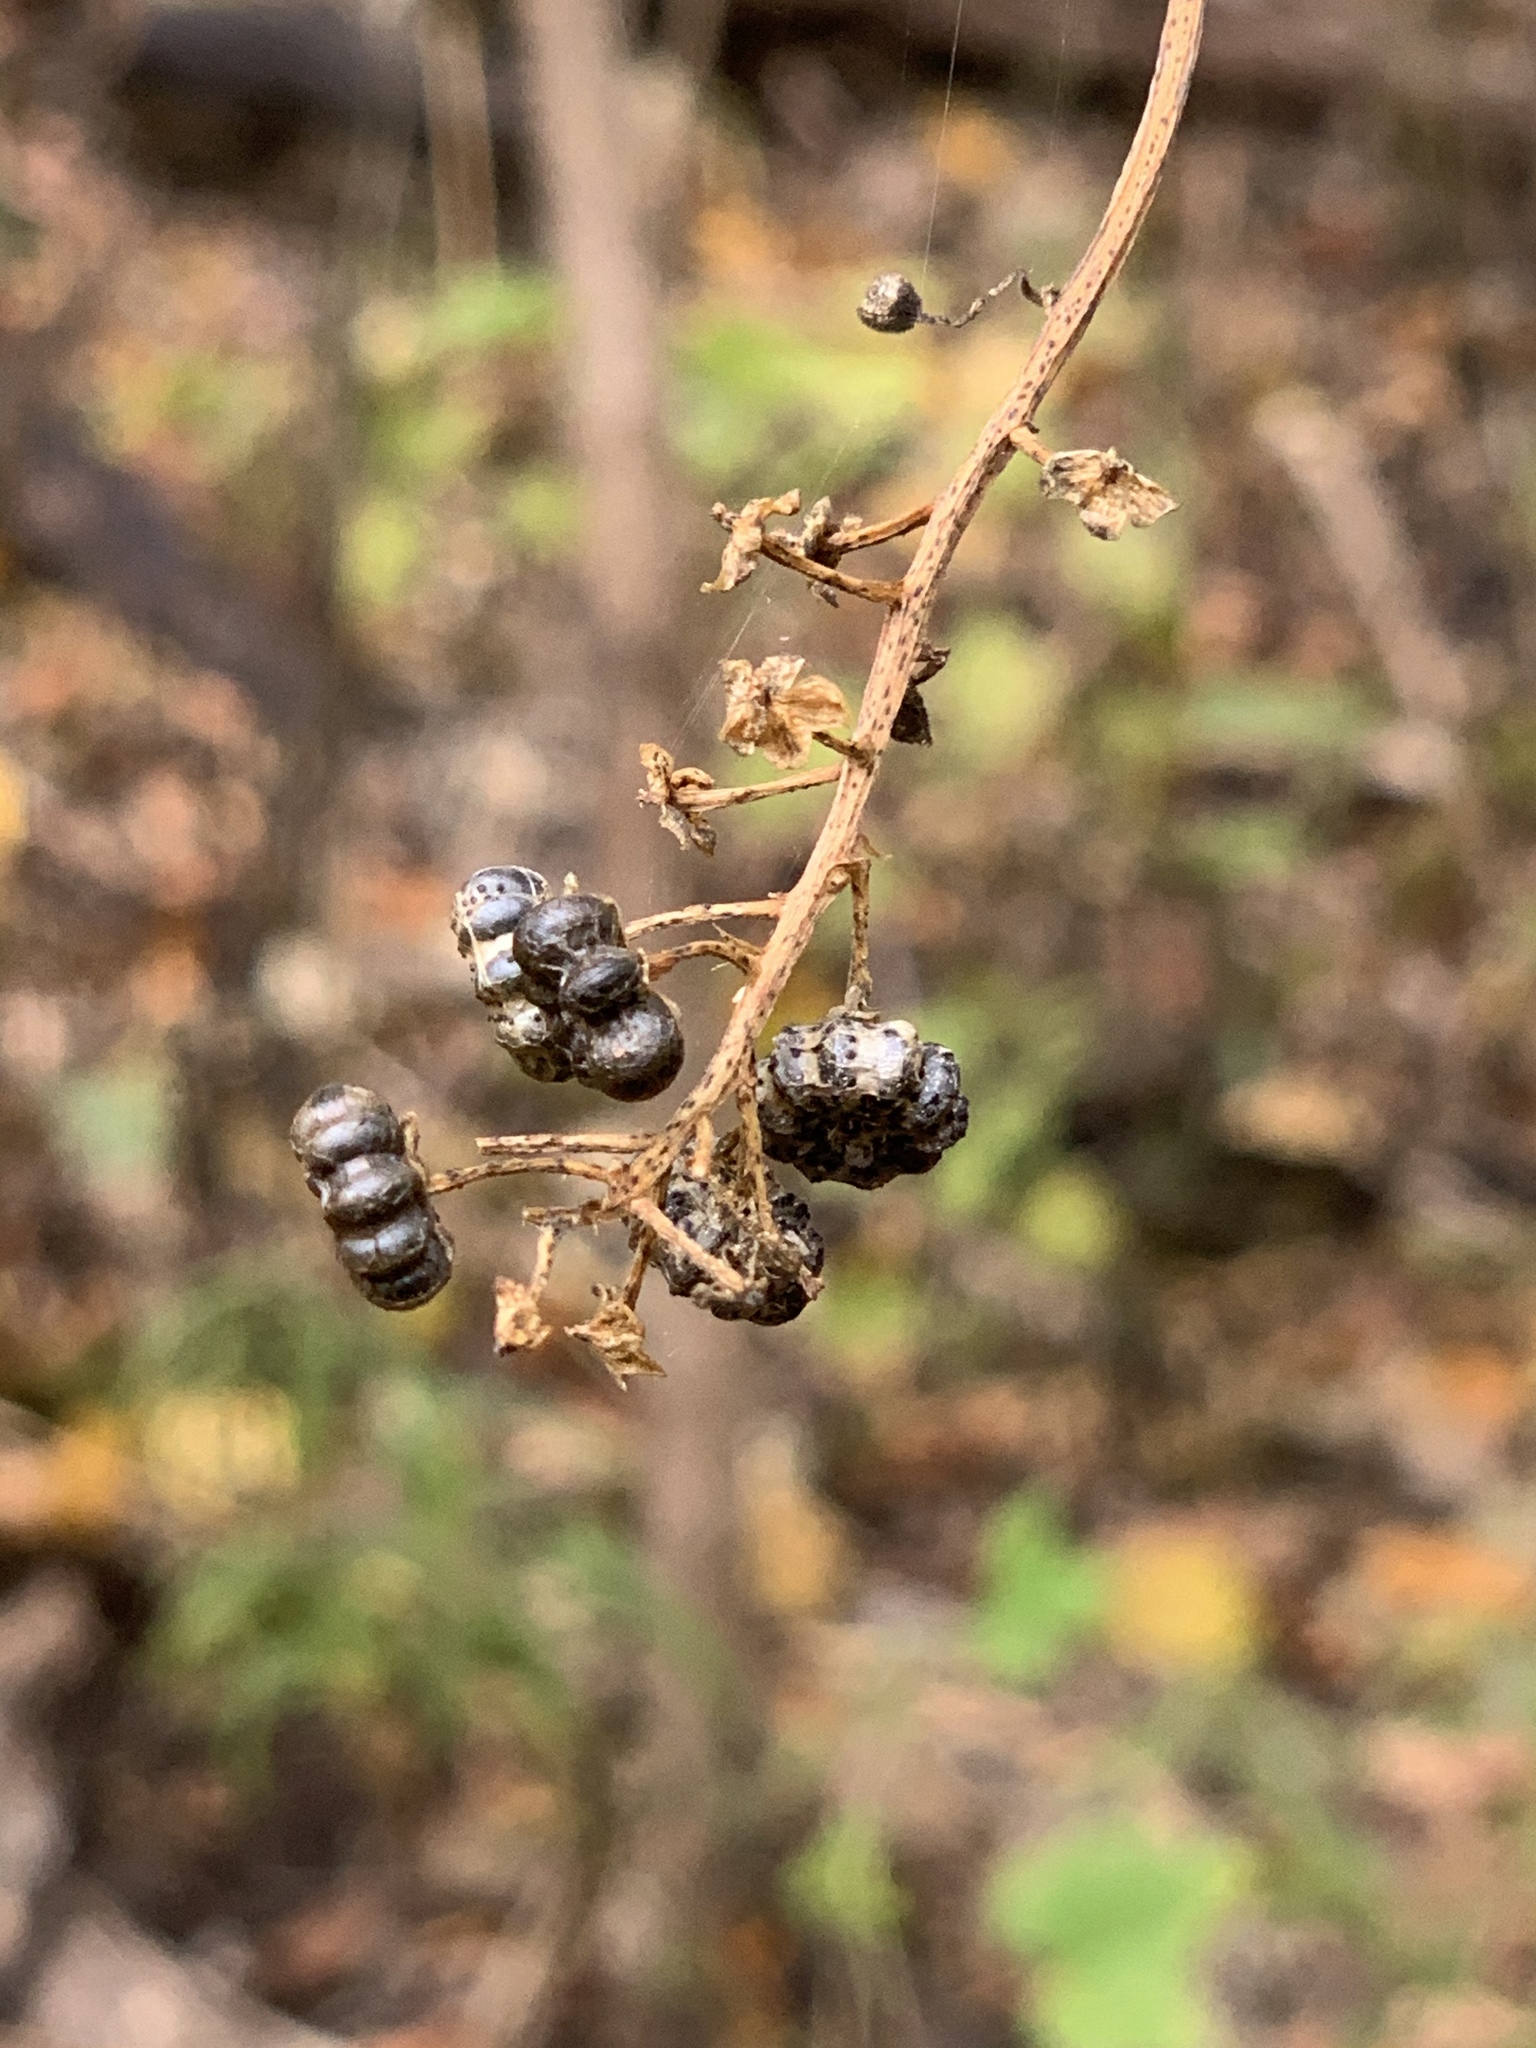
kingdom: Plantae
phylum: Tracheophyta
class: Magnoliopsida
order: Caryophyllales
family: Phytolaccaceae
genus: Phytolacca
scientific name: Phytolacca americana
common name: American pokeweed
